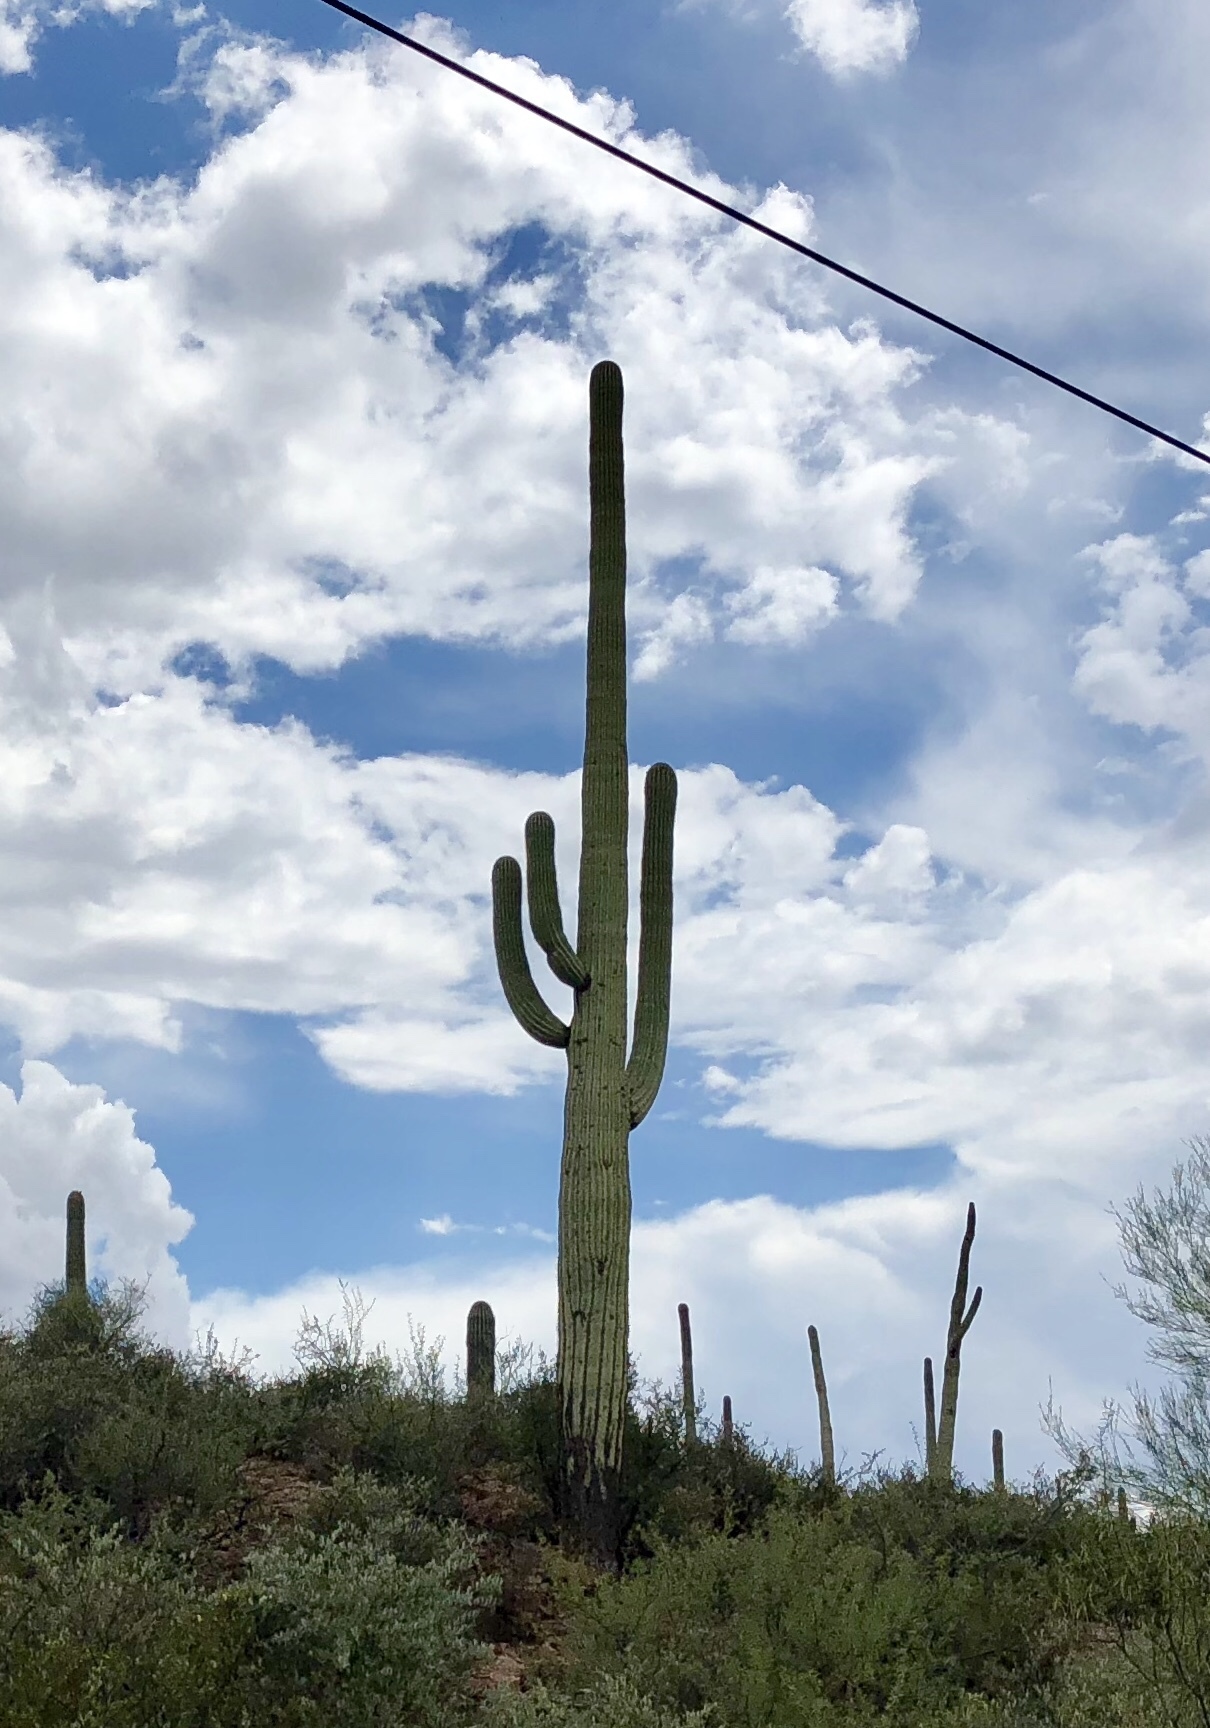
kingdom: Plantae
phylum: Tracheophyta
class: Magnoliopsida
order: Caryophyllales
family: Cactaceae
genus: Carnegiea
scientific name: Carnegiea gigantea
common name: Saguaro
